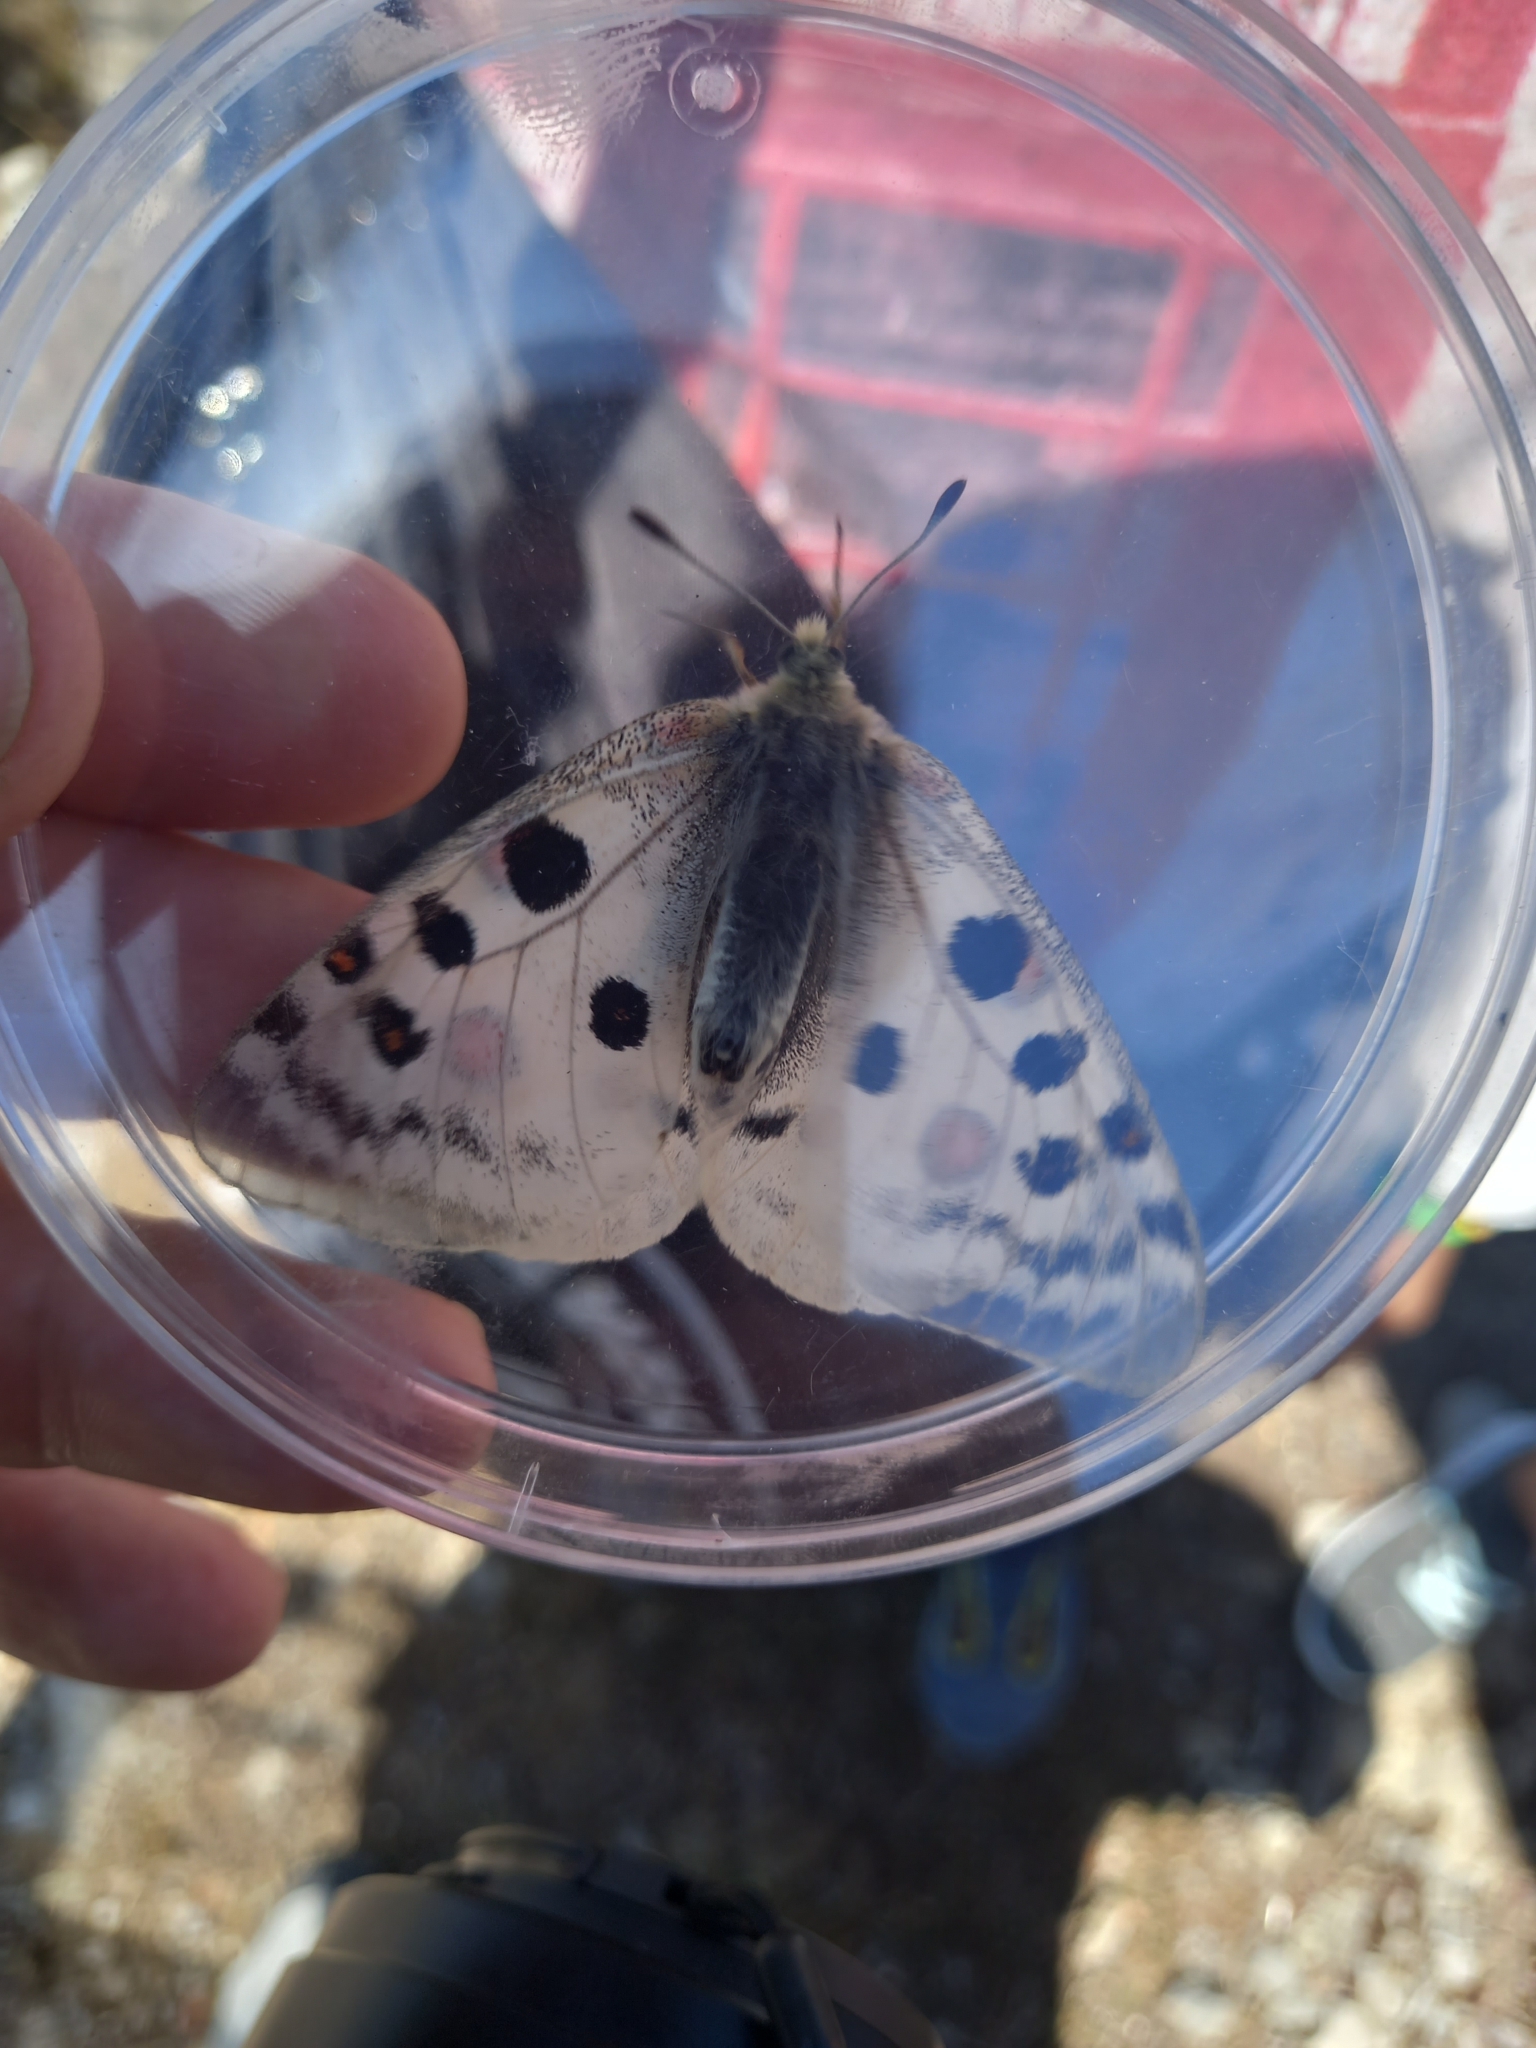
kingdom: Animalia
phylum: Arthropoda
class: Insecta
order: Lepidoptera
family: Papilionidae
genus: Parnassius
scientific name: Parnassius apollo
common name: Apollo
